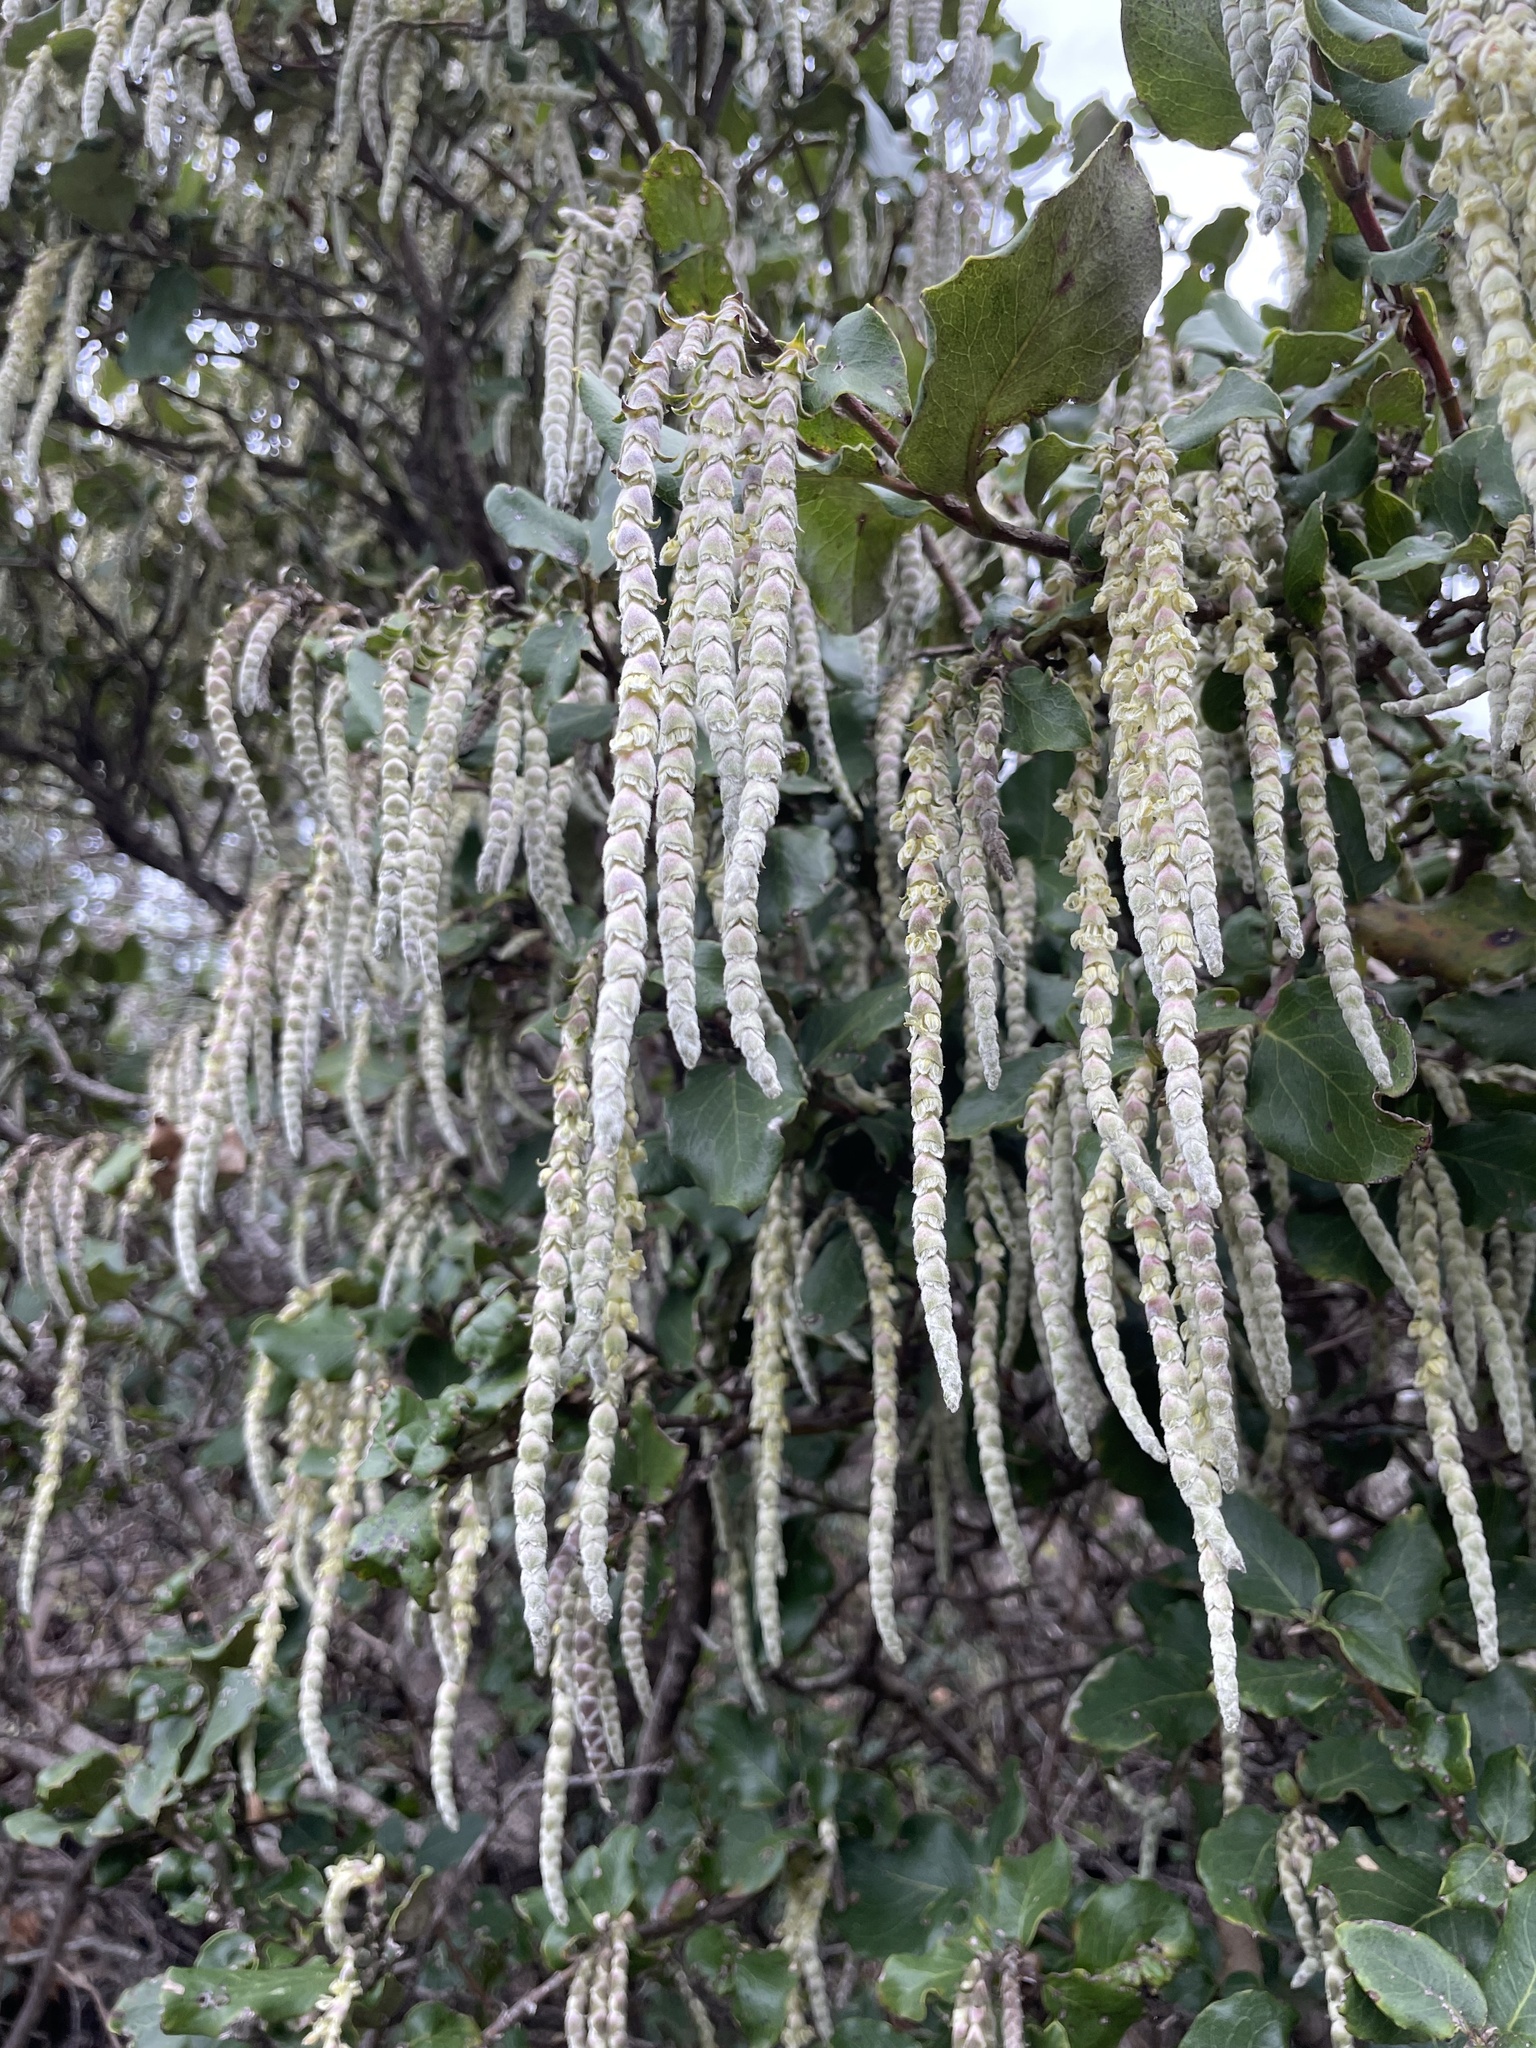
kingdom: Plantae
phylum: Tracheophyta
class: Magnoliopsida
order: Garryales
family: Garryaceae
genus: Garrya
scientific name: Garrya elliptica
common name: Silk-tassel
